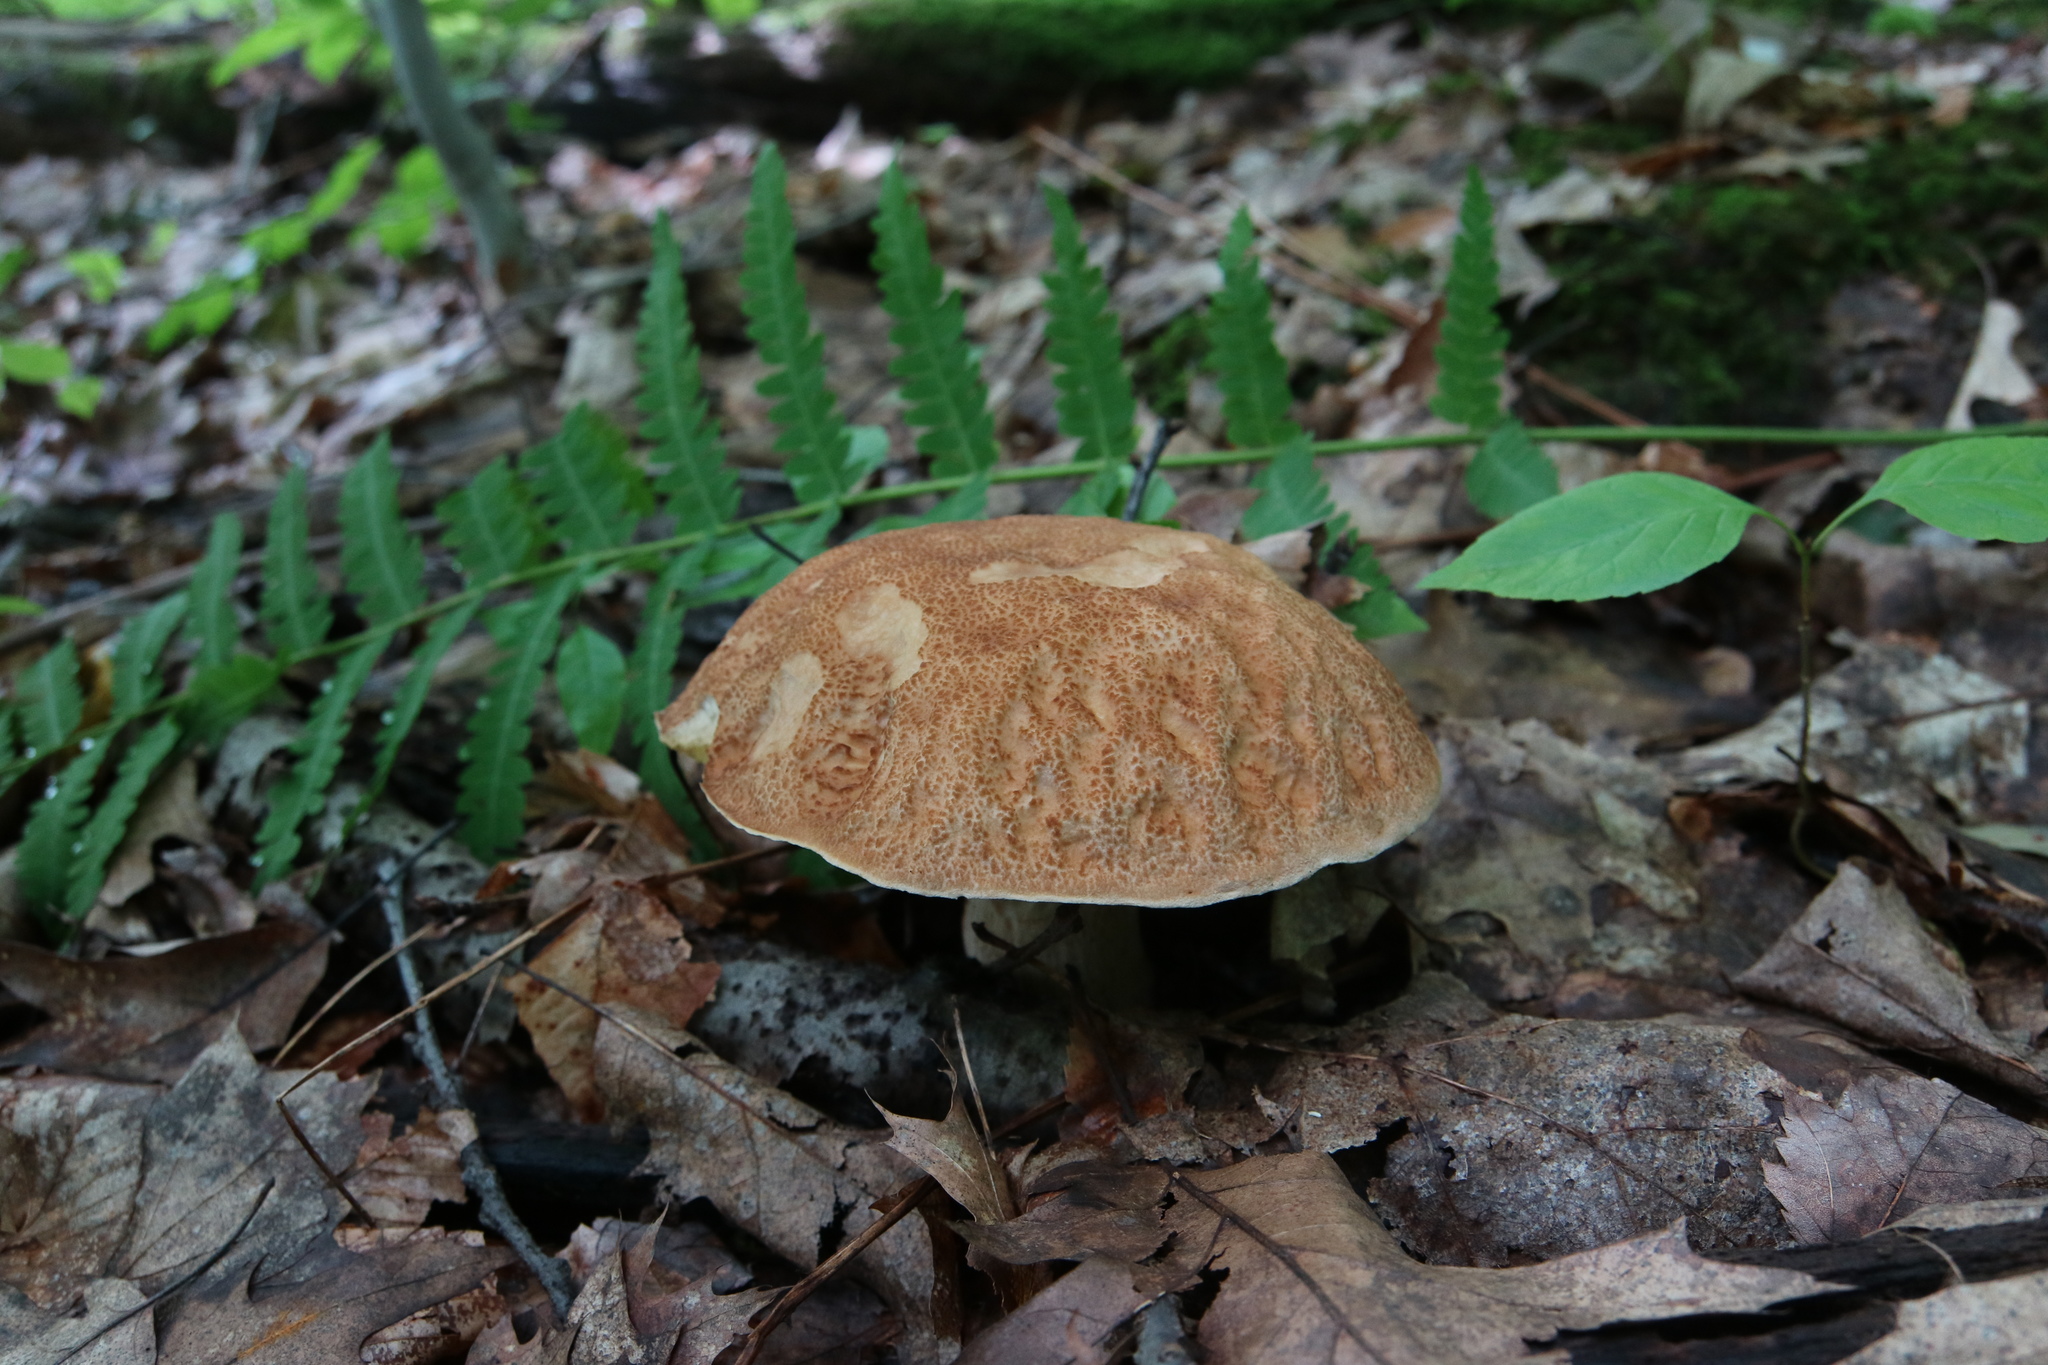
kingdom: Fungi
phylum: Basidiomycota
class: Agaricomycetes
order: Boletales
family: Boletaceae
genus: Boletus
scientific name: Boletus variipes
